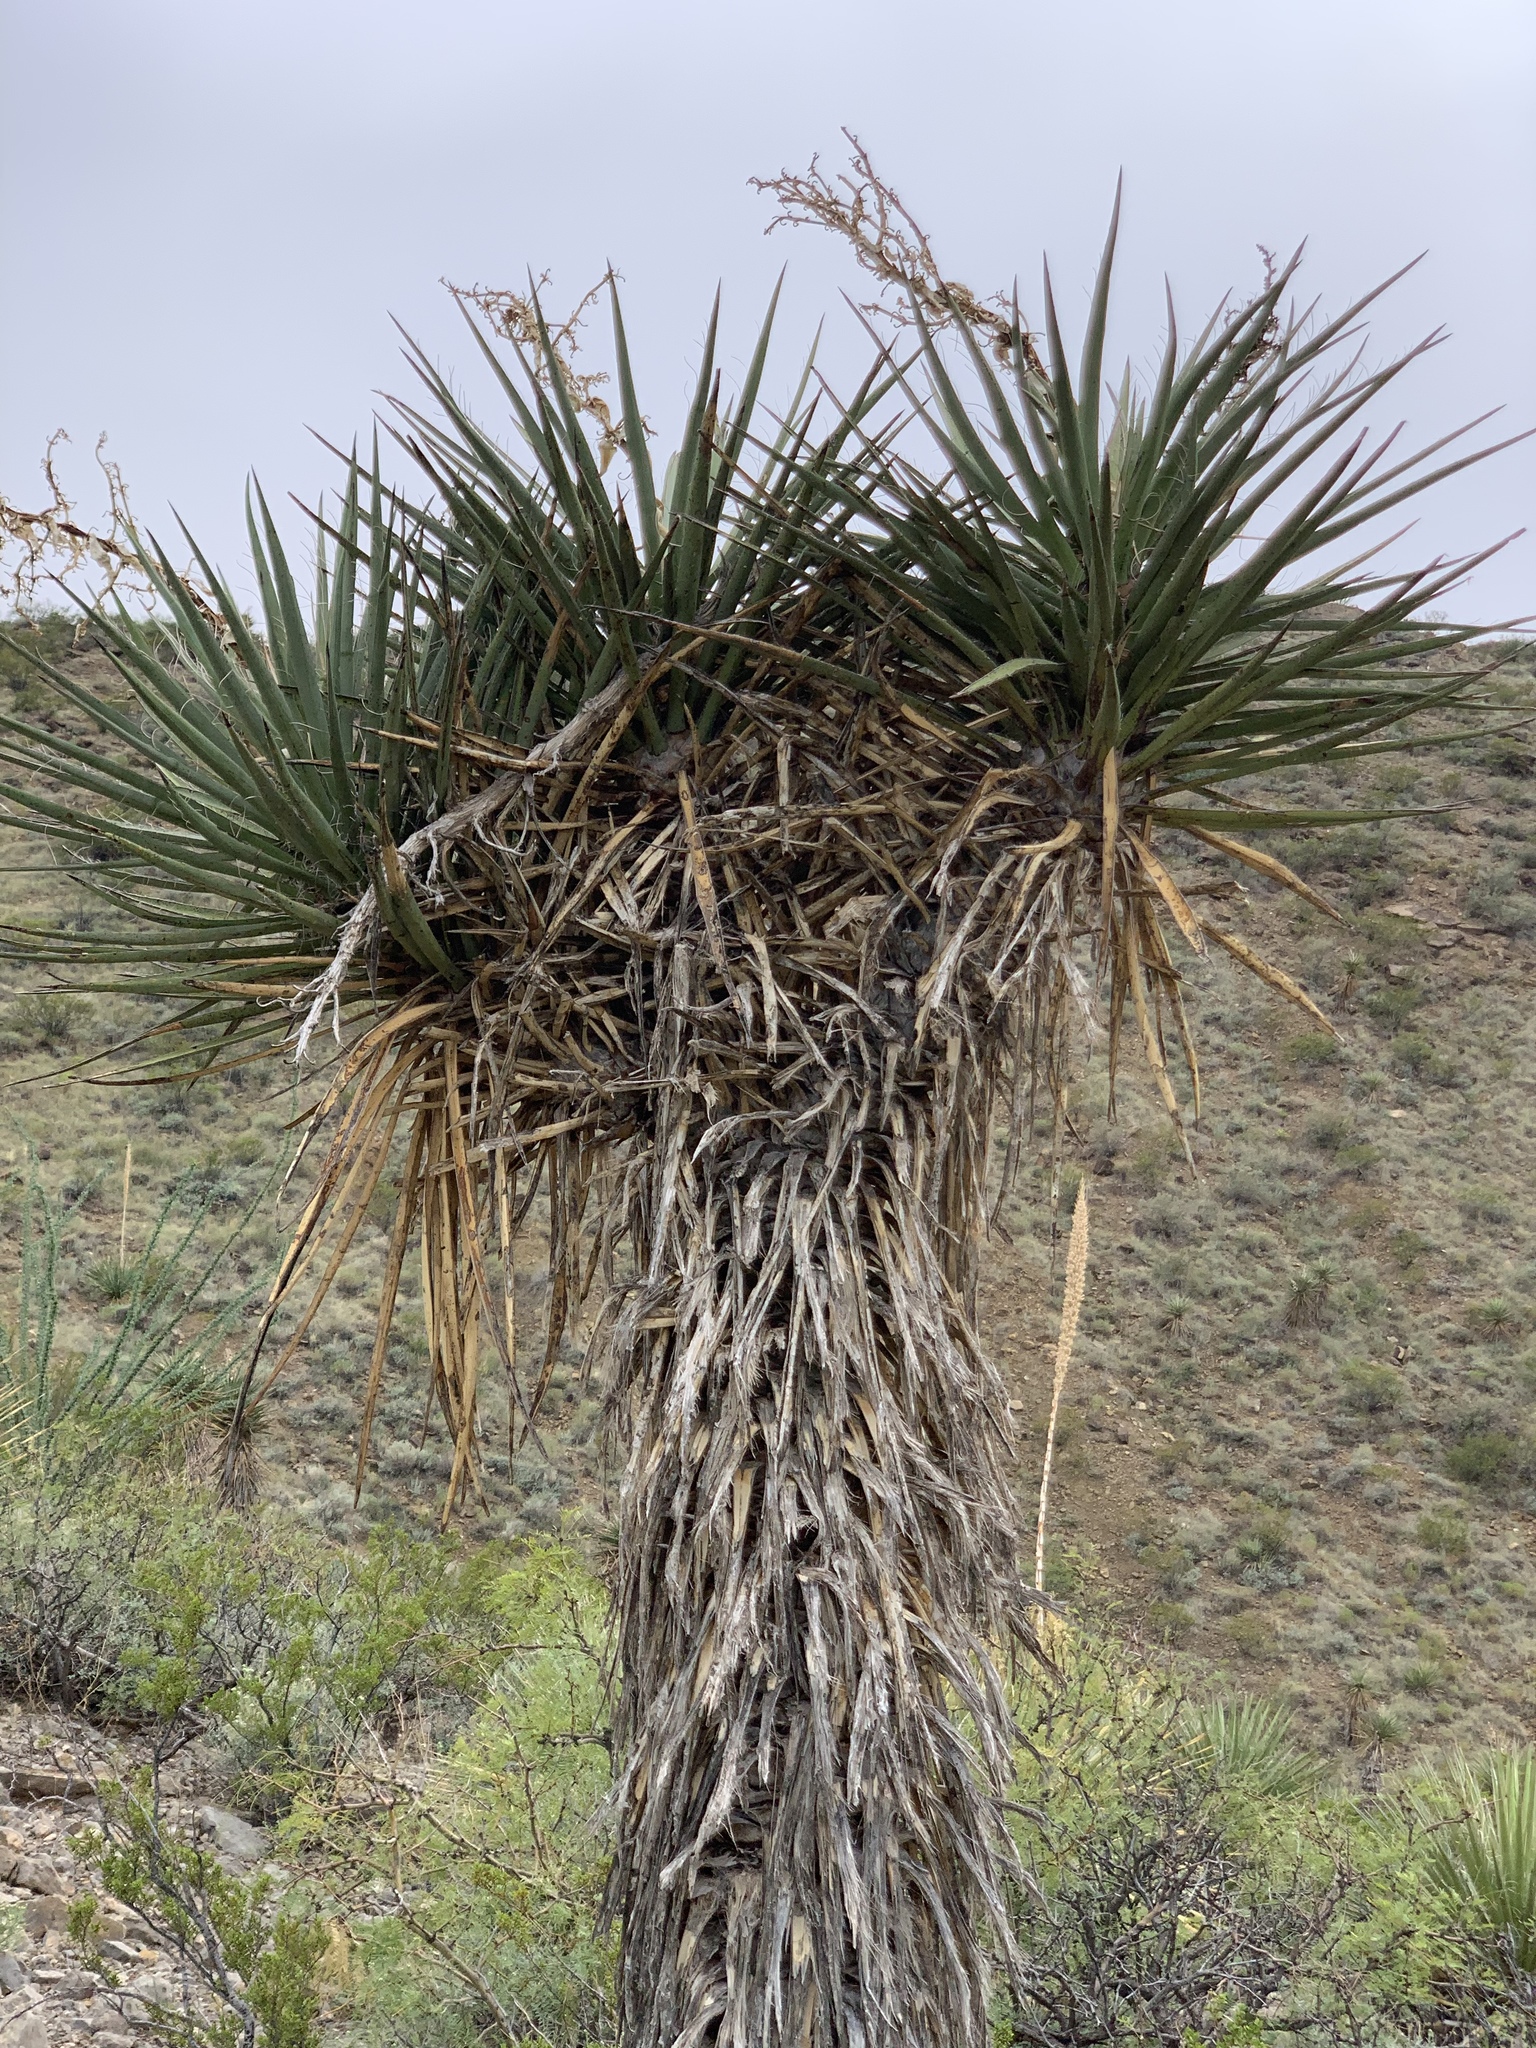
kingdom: Plantae
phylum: Tracheophyta
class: Liliopsida
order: Asparagales
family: Asparagaceae
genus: Yucca
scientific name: Yucca treculiana
